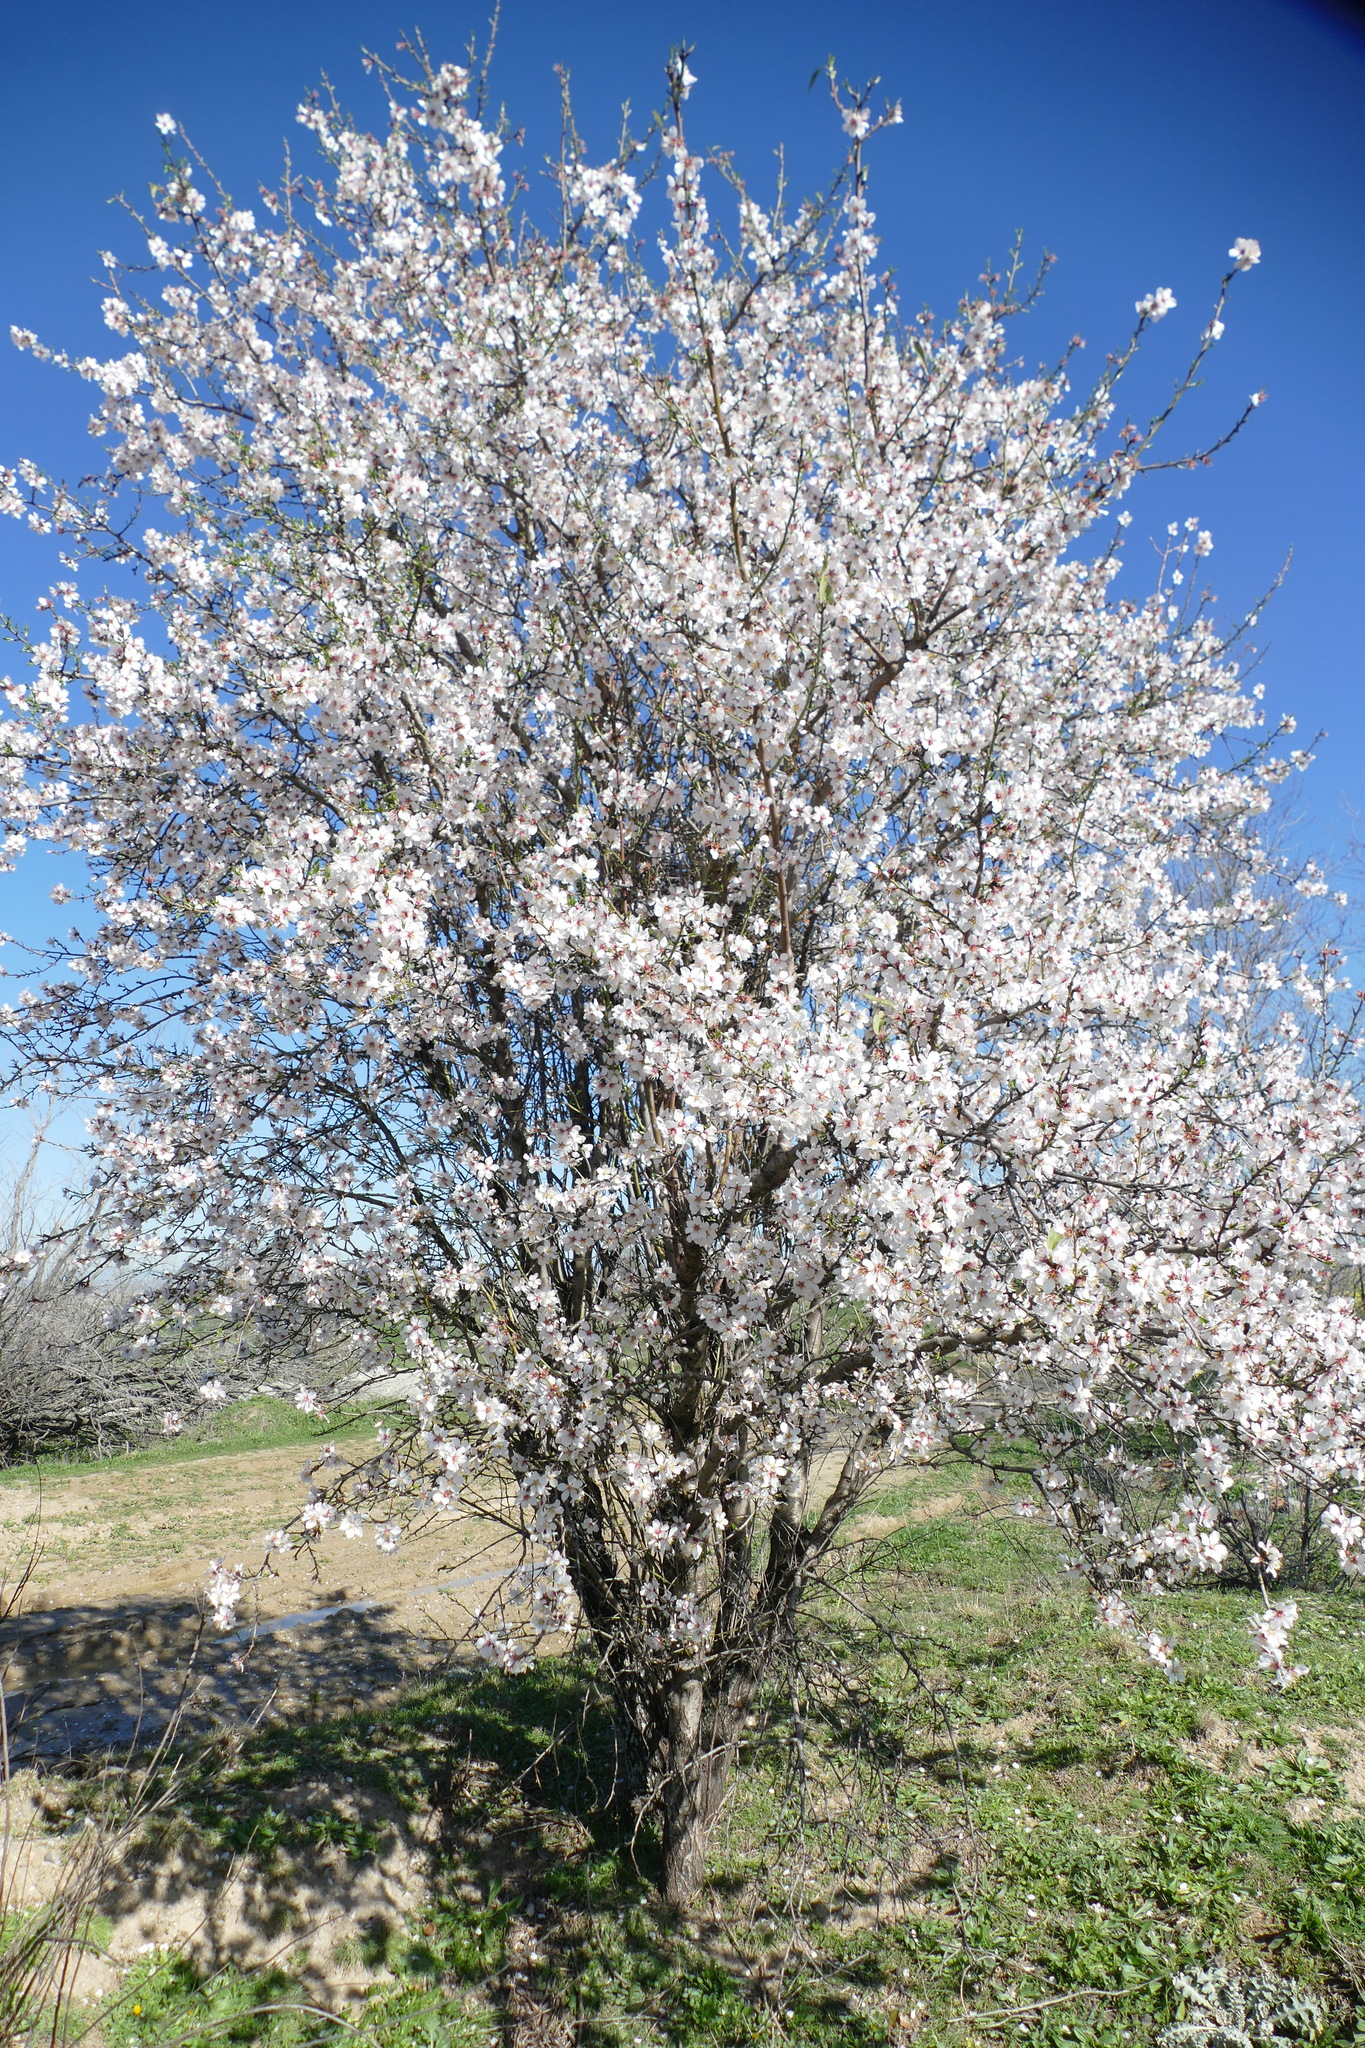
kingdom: Plantae
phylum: Tracheophyta
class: Magnoliopsida
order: Rosales
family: Rosaceae
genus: Prunus
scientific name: Prunus amygdalus
